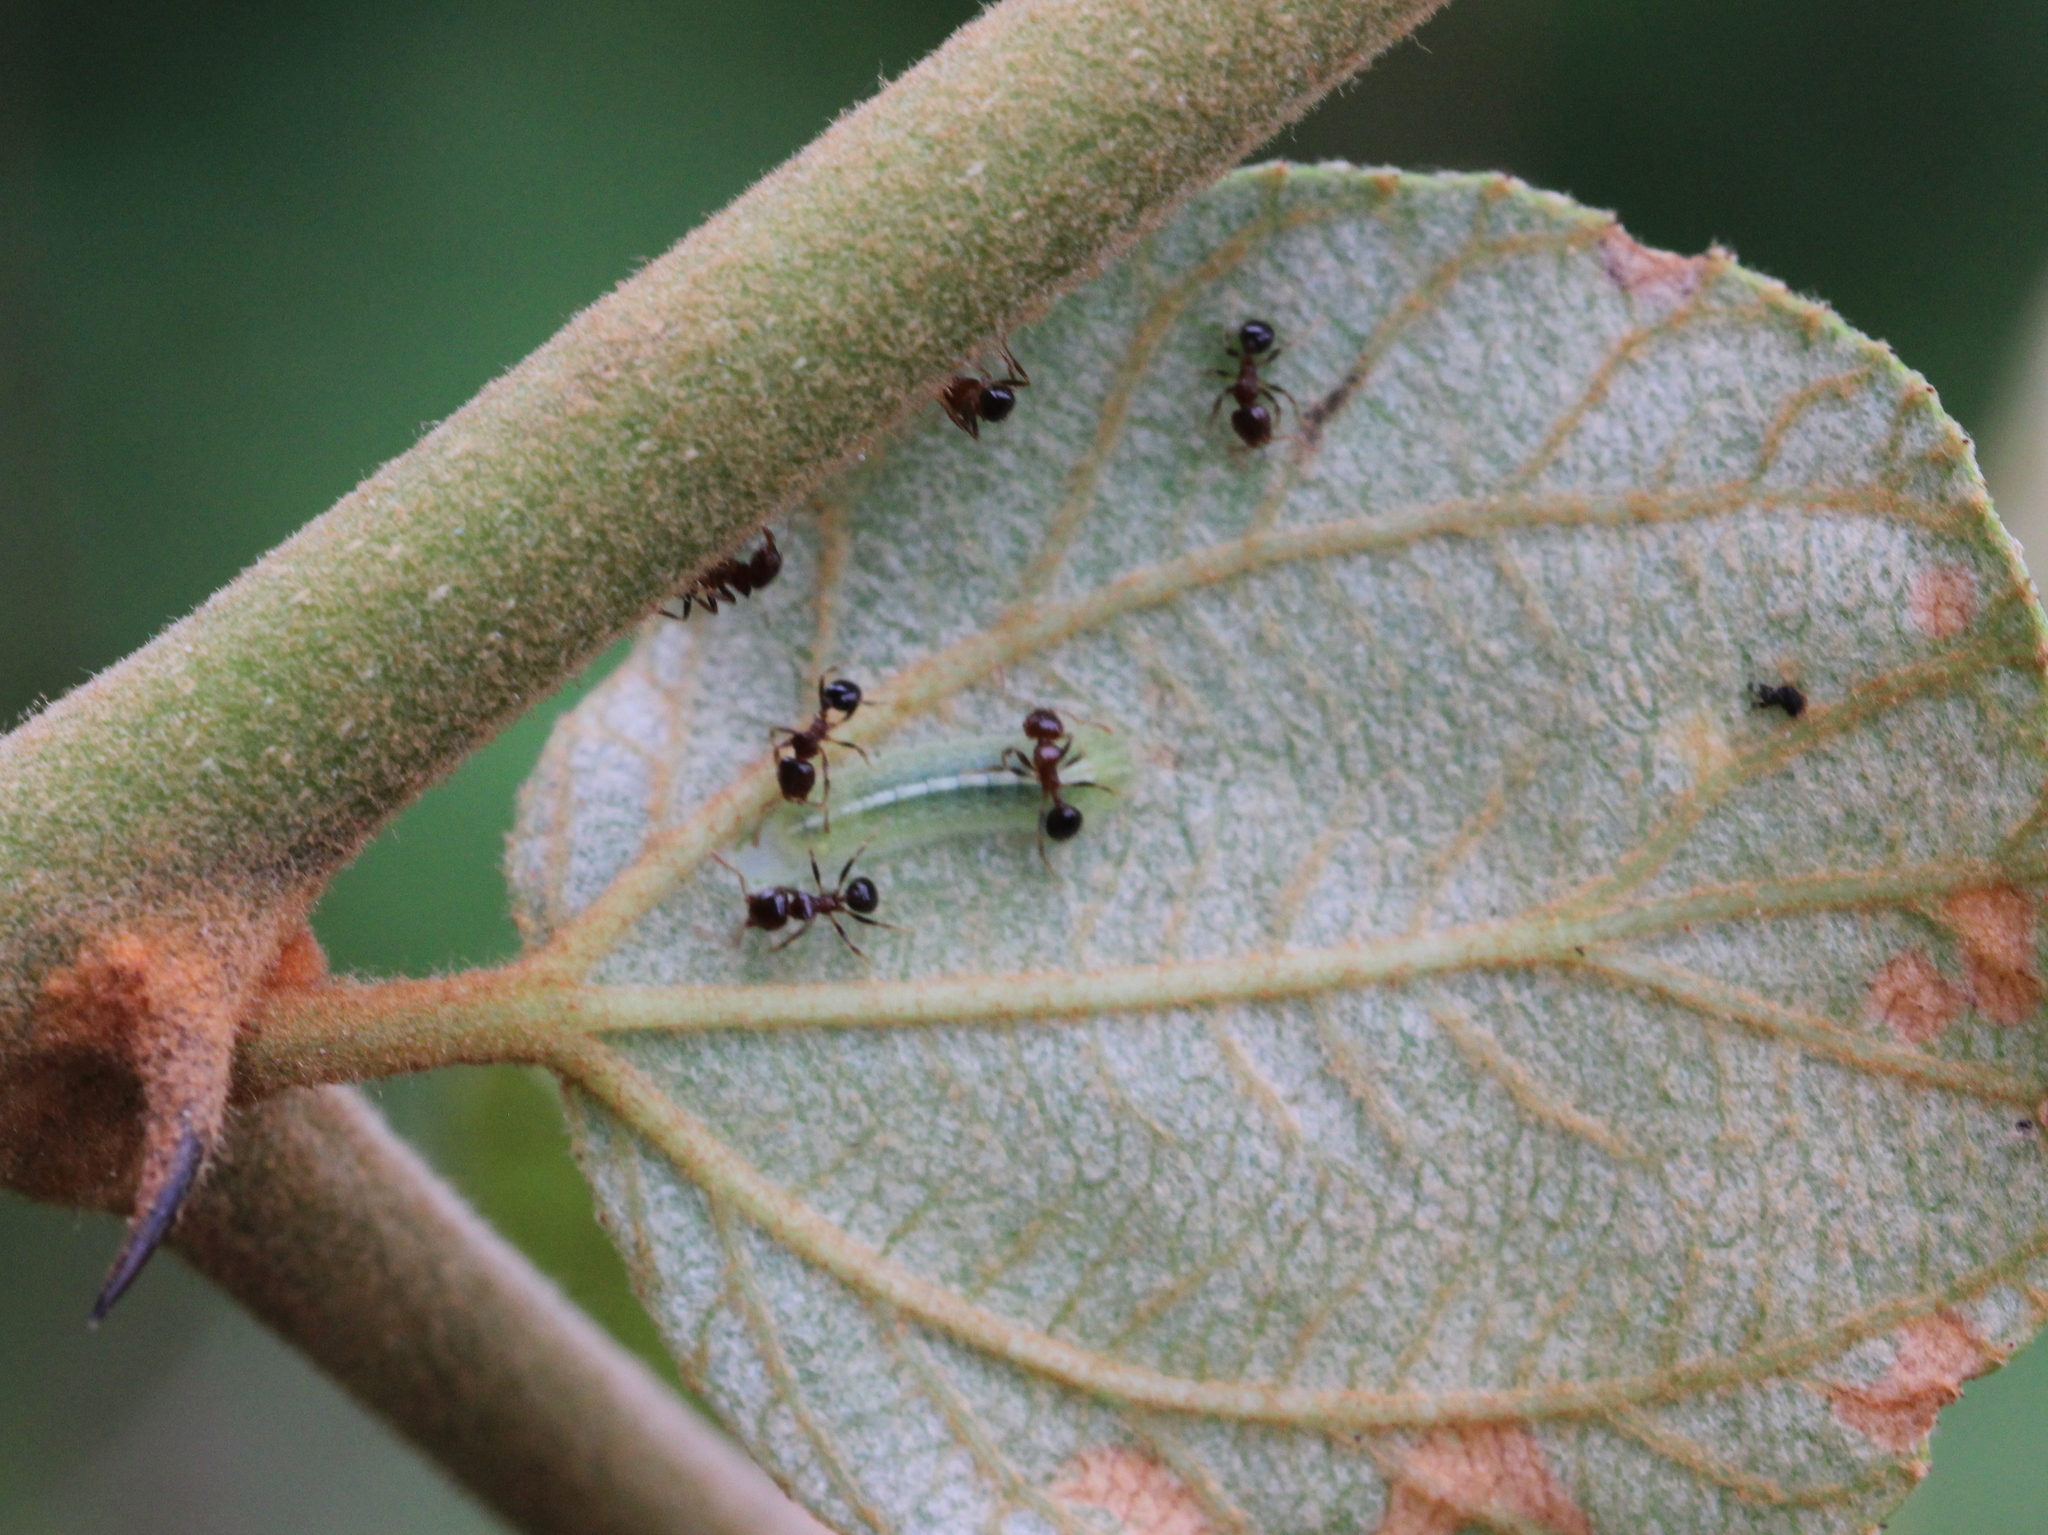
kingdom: Animalia
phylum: Arthropoda
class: Insecta
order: Lepidoptera
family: Lycaenidae
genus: Castalius
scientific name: Castalius rosimon
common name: Common pierrot
